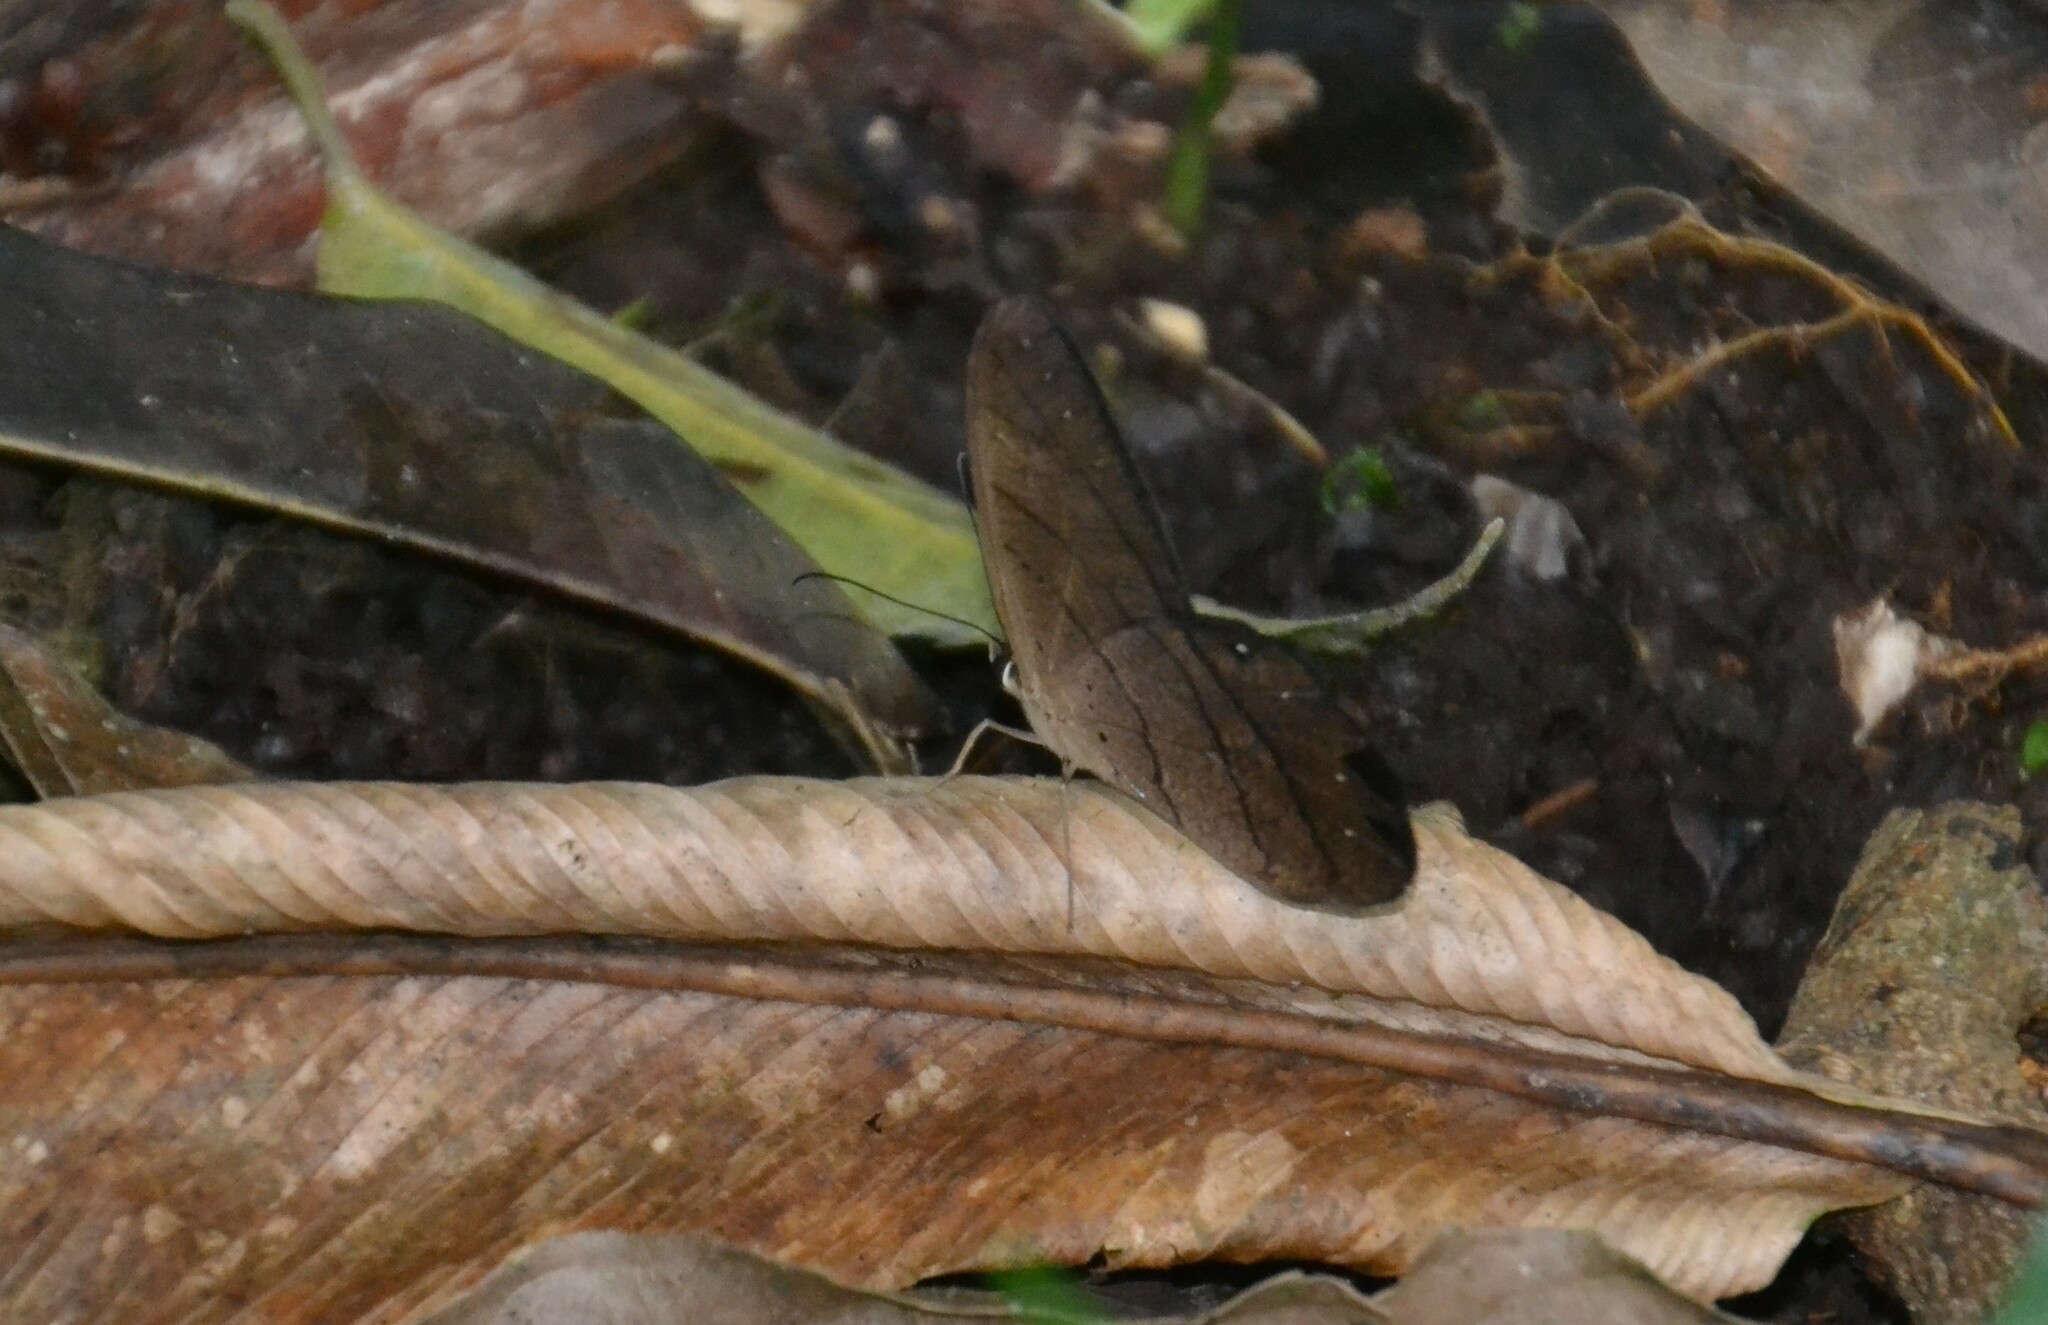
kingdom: Animalia
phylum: Arthropoda
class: Insecta
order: Lepidoptera
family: Nymphalidae
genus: Pierella
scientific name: Pierella luna
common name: Moon satyr
